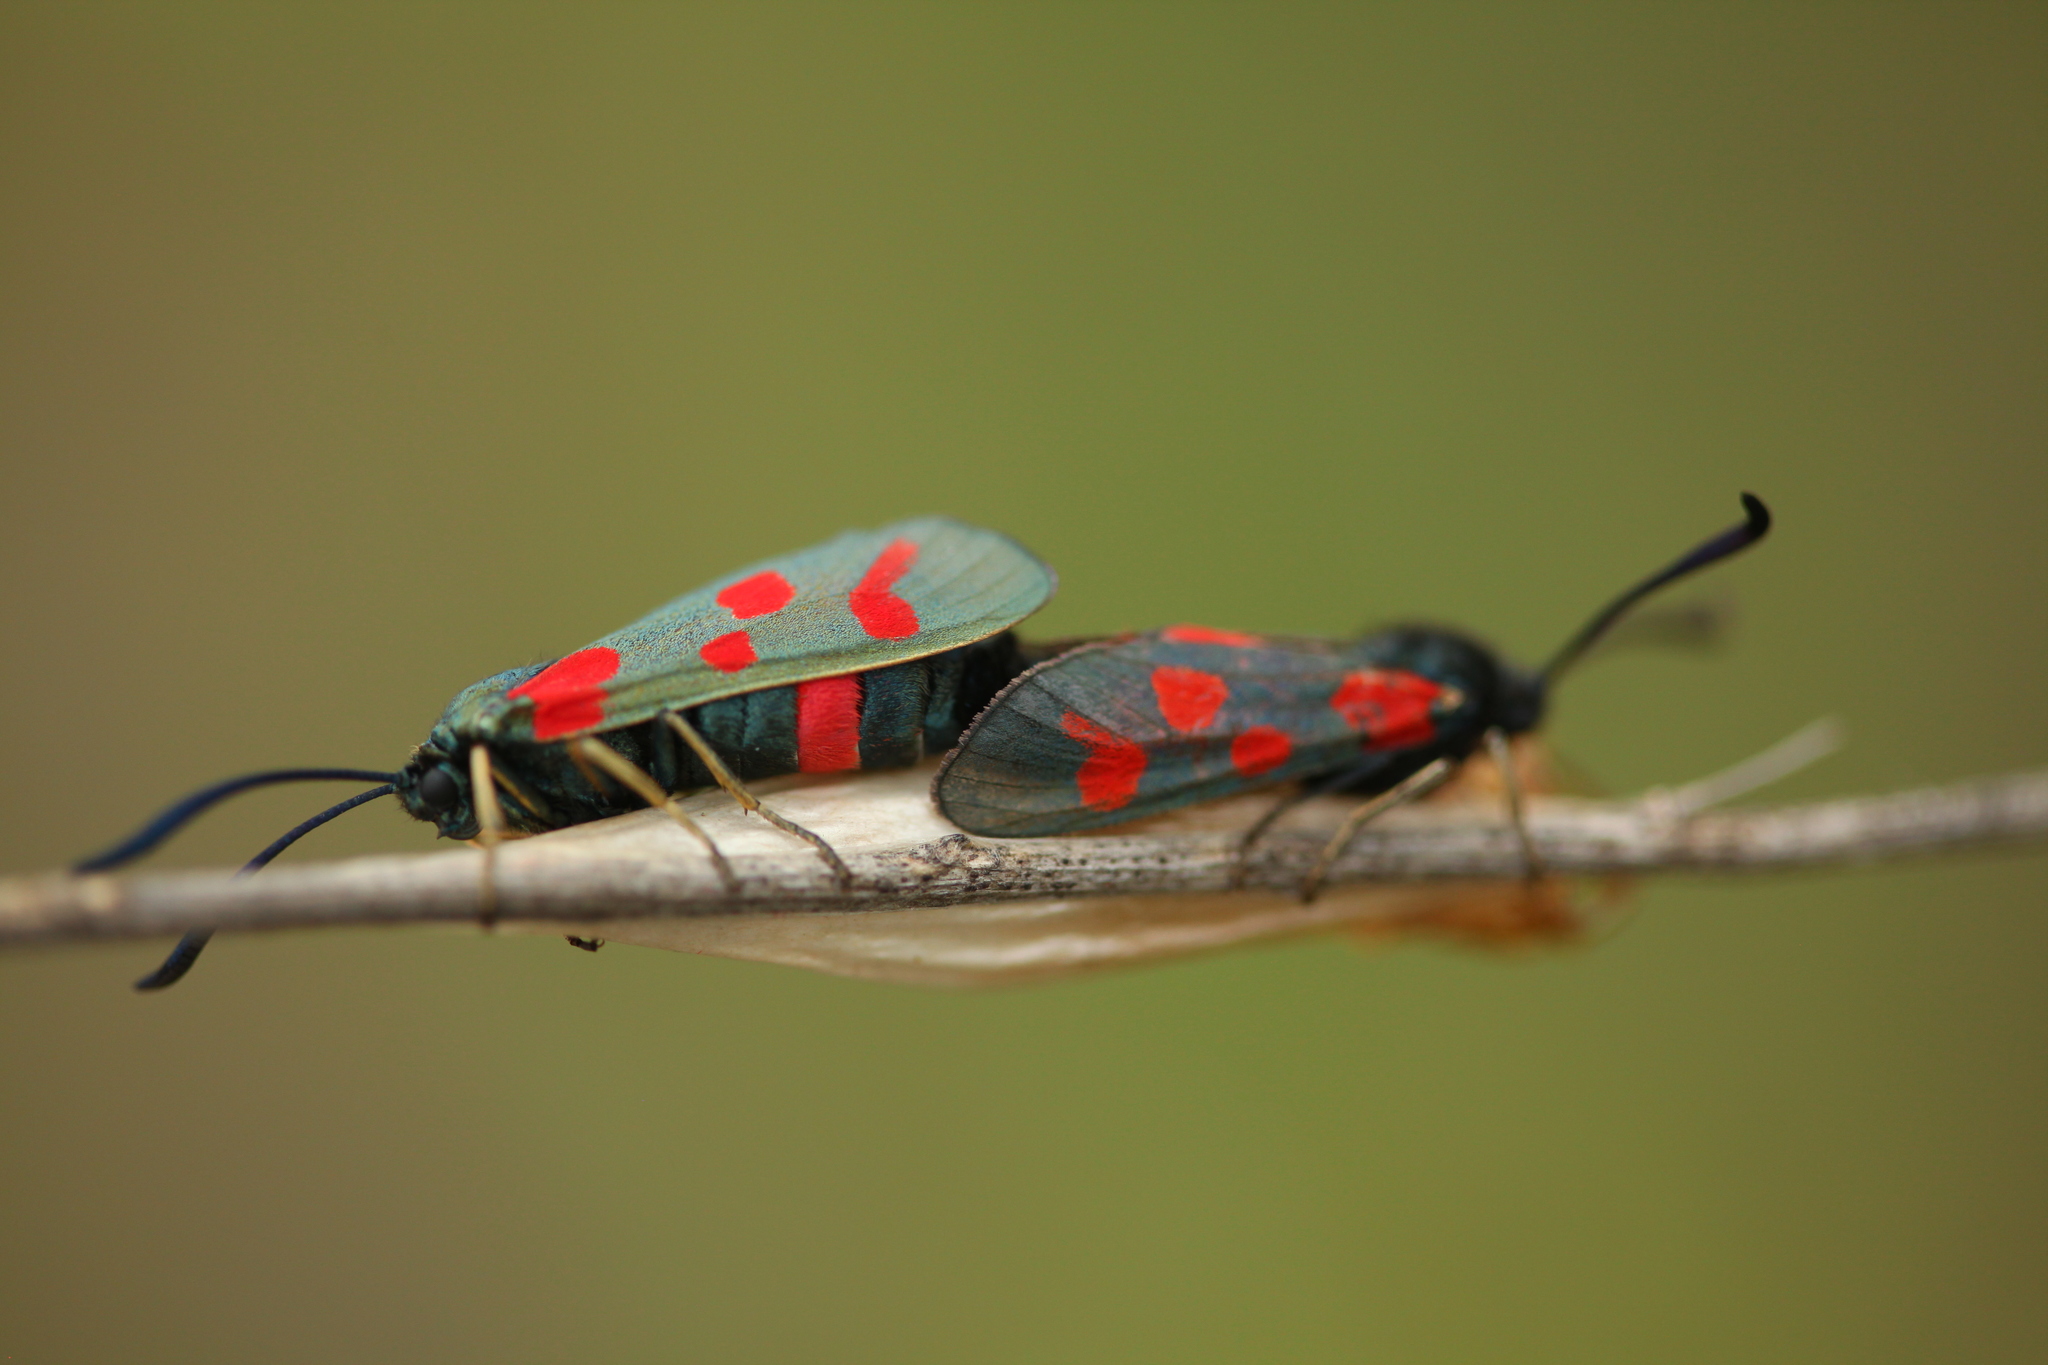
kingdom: Animalia
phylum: Arthropoda
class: Insecta
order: Lepidoptera
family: Zygaenidae
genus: Zygaena
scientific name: Zygaena centaureae
